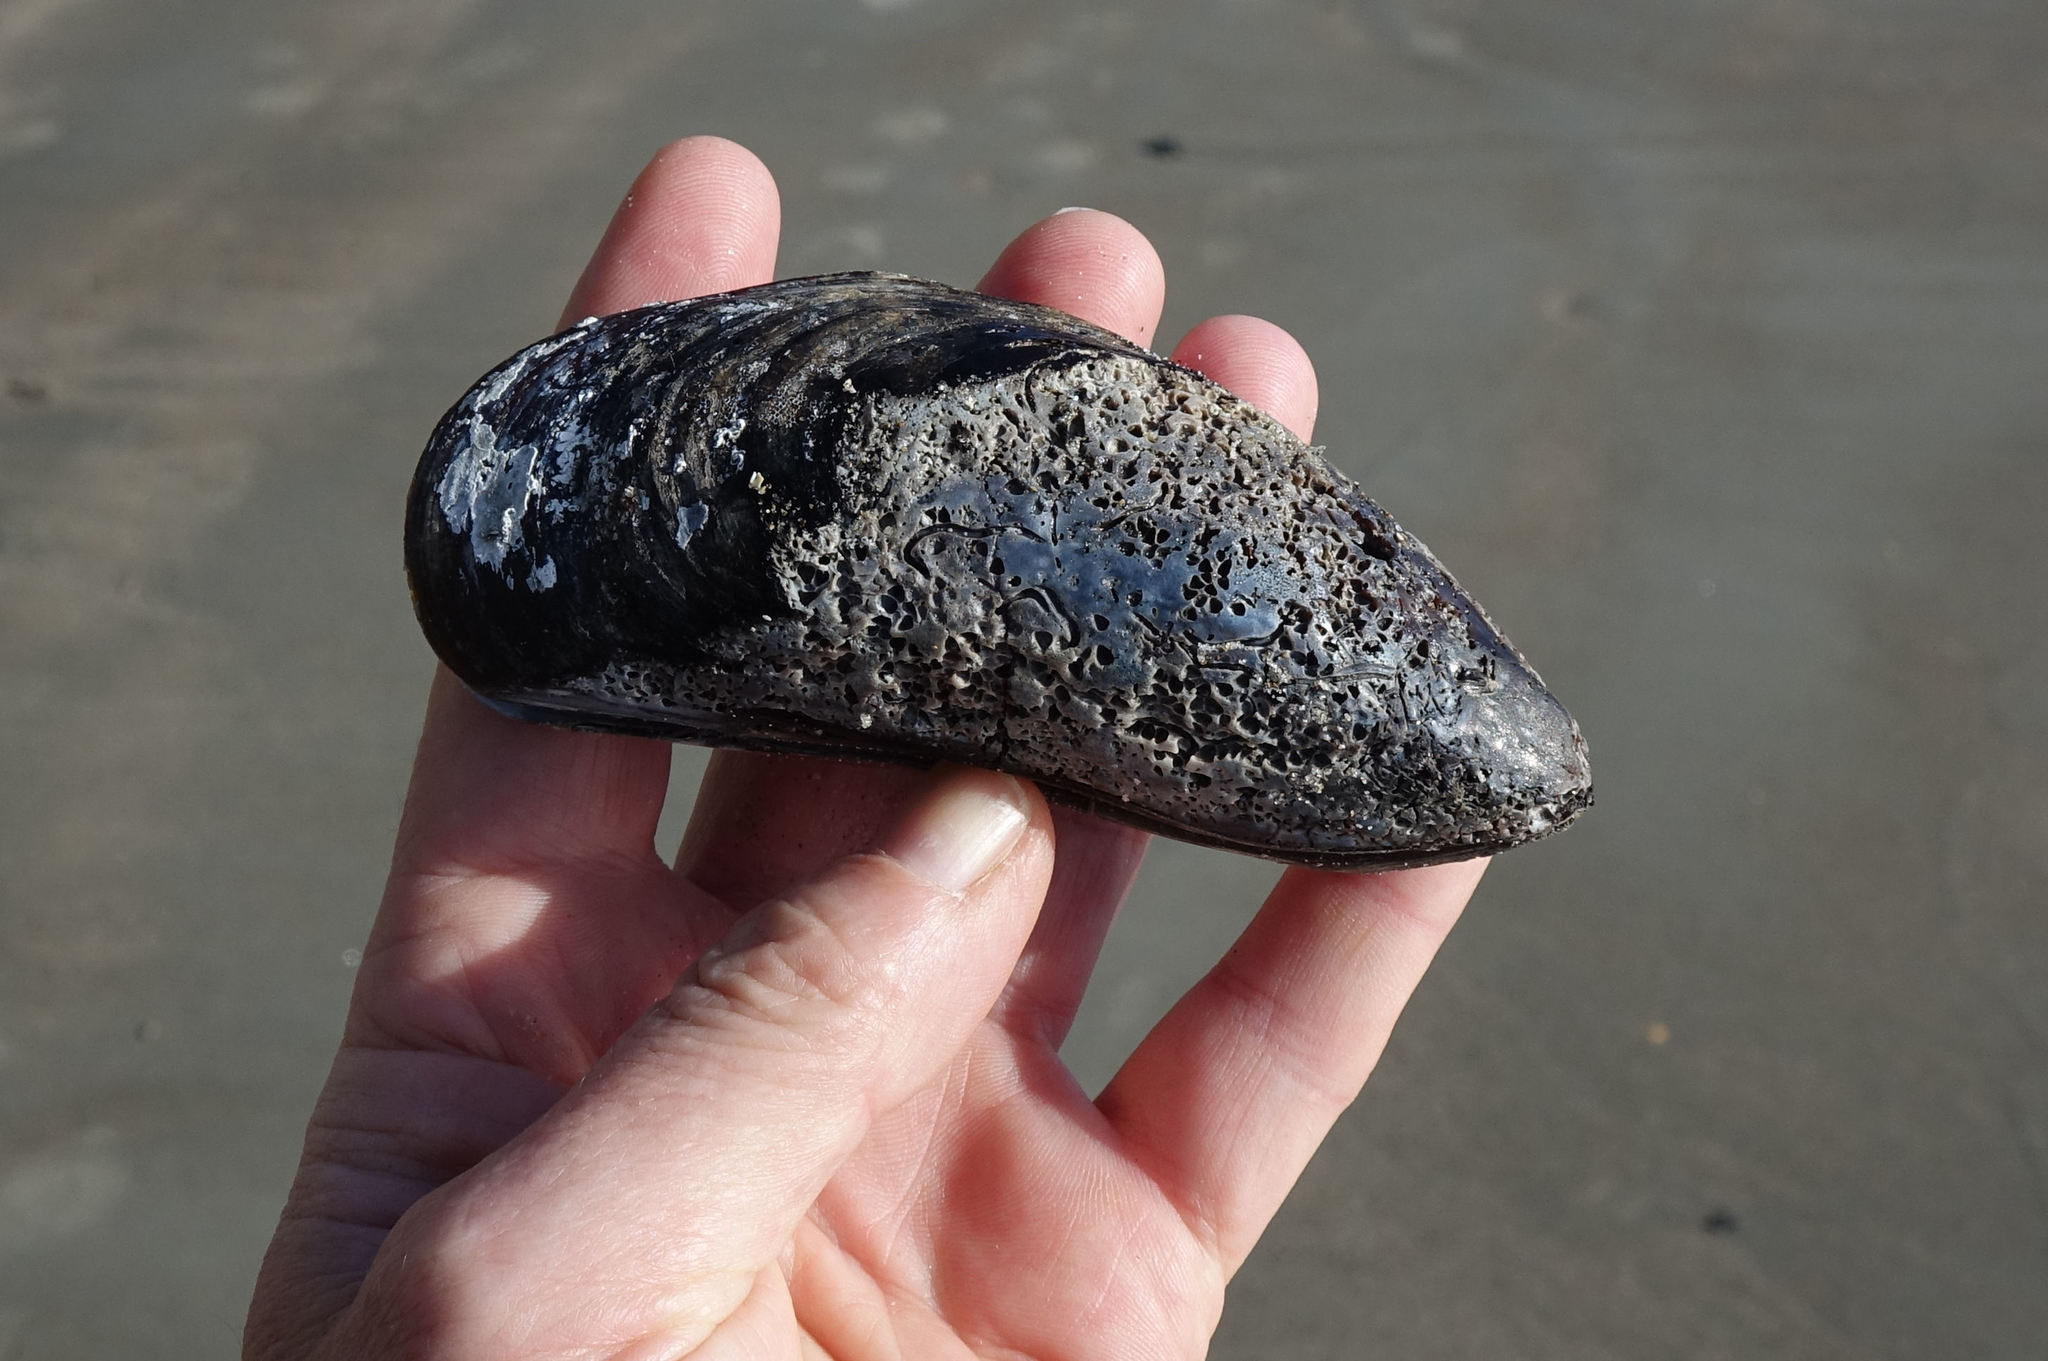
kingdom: Animalia
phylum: Mollusca
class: Bivalvia
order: Mytilida
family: Mytilidae
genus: Perna
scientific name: Perna canaliculus
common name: New zealand greenshelltm
